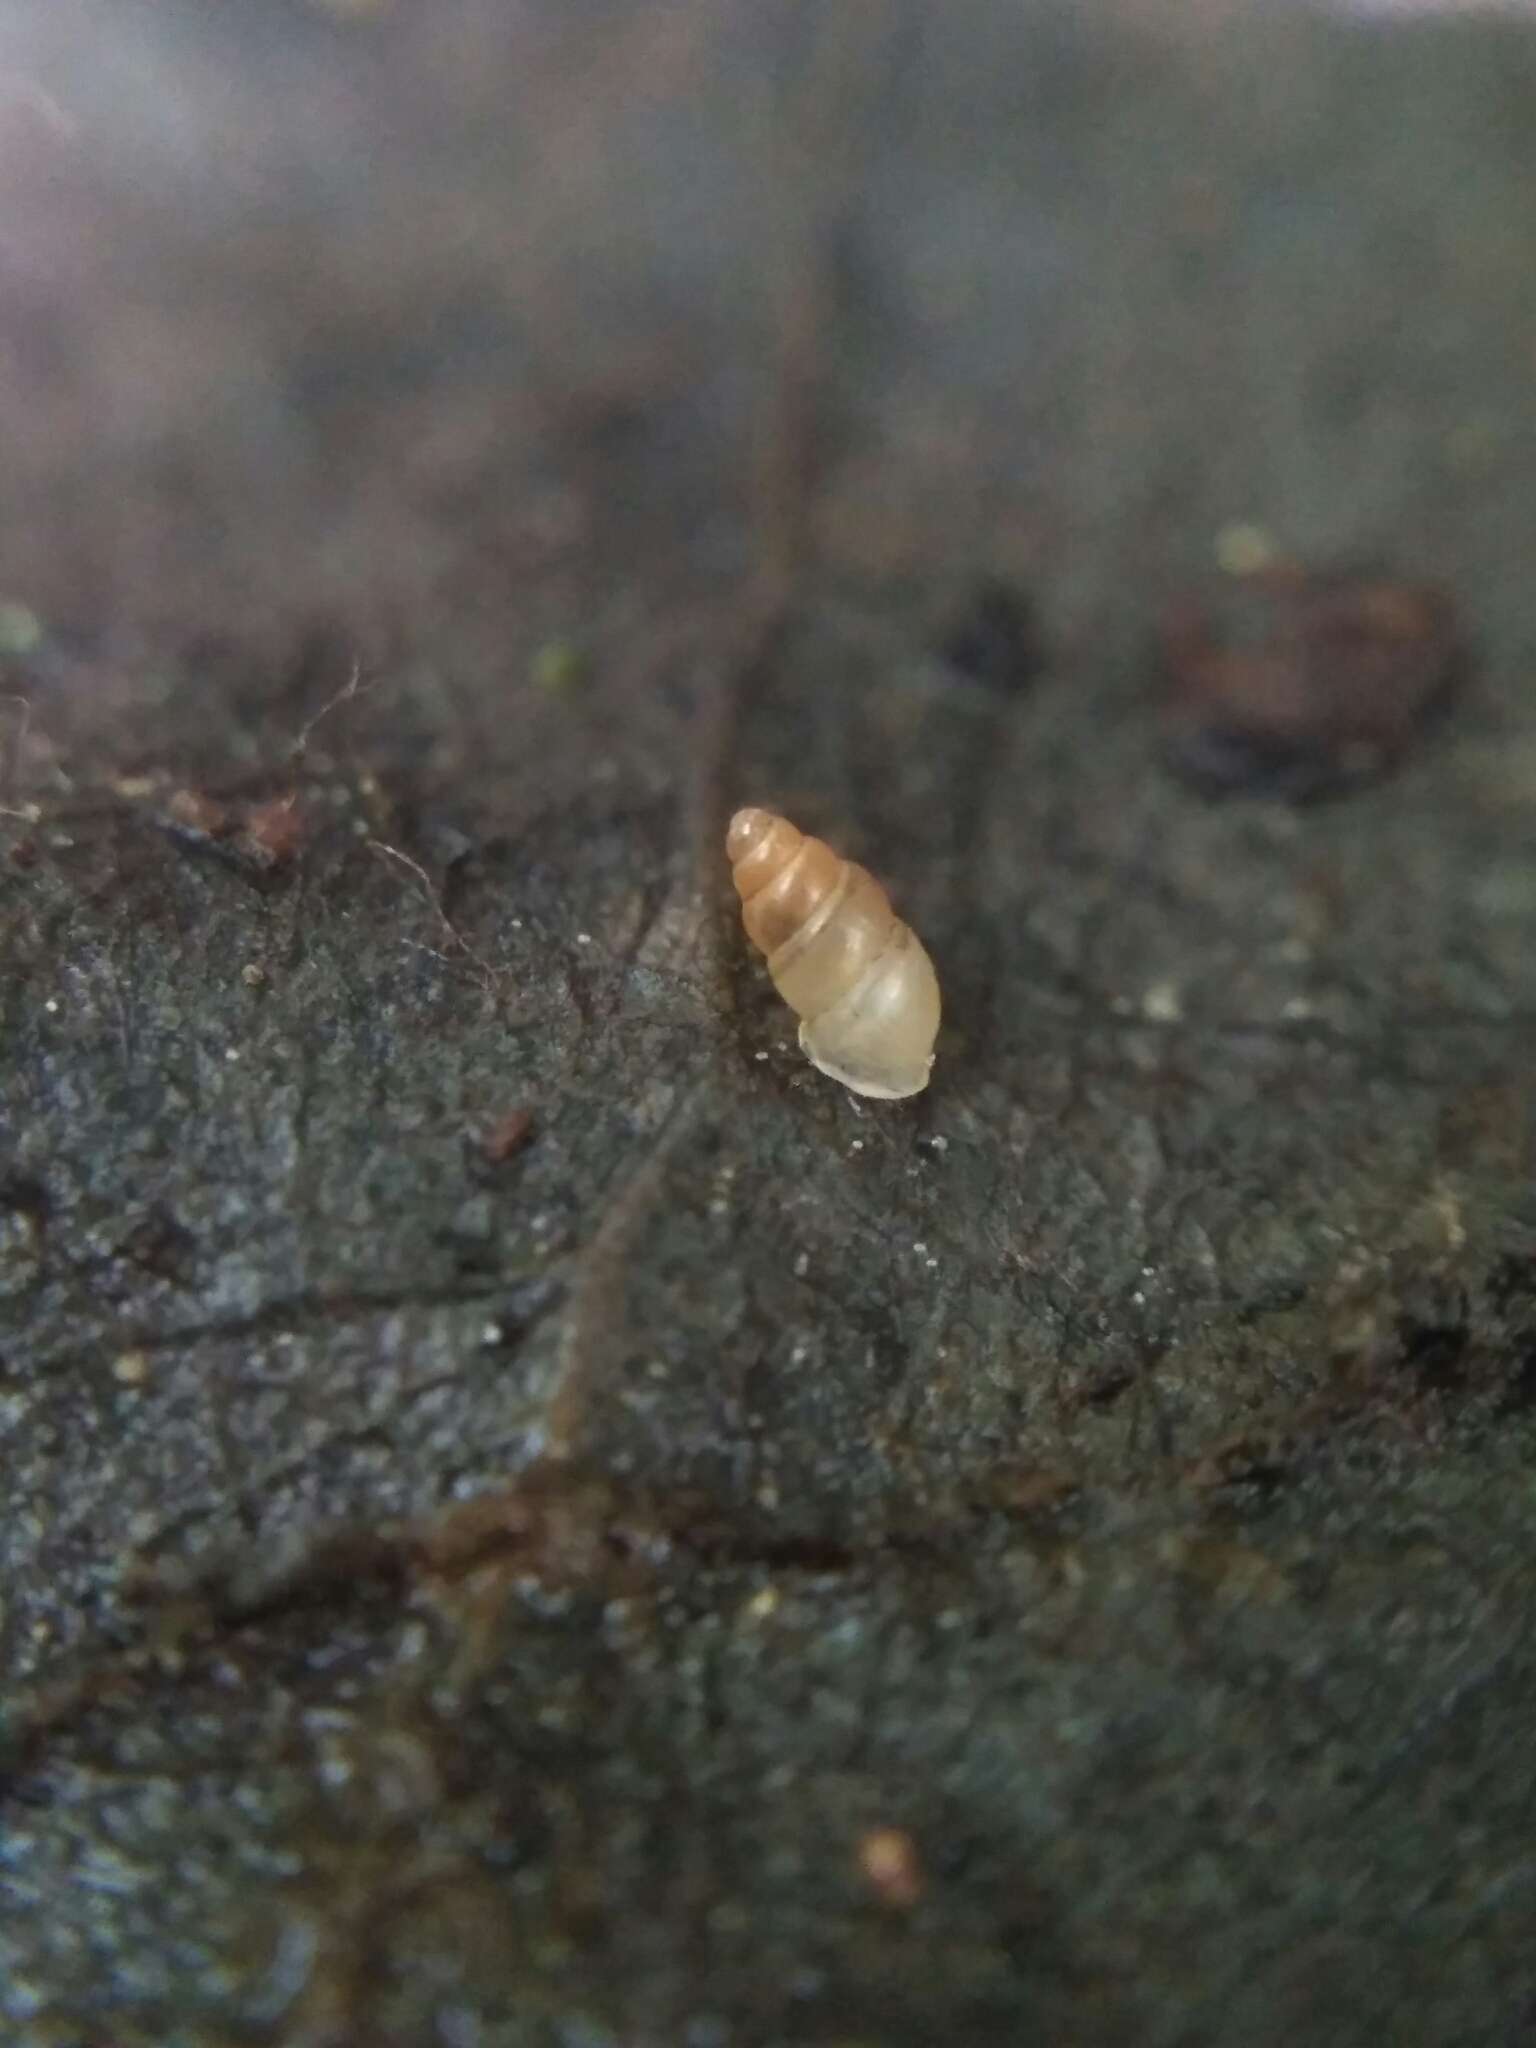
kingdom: Animalia
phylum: Mollusca
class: Gastropoda
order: Ellobiida
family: Ellobiidae
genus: Carychium
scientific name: Carychium tridentatum
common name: Long-toothed herald snail
